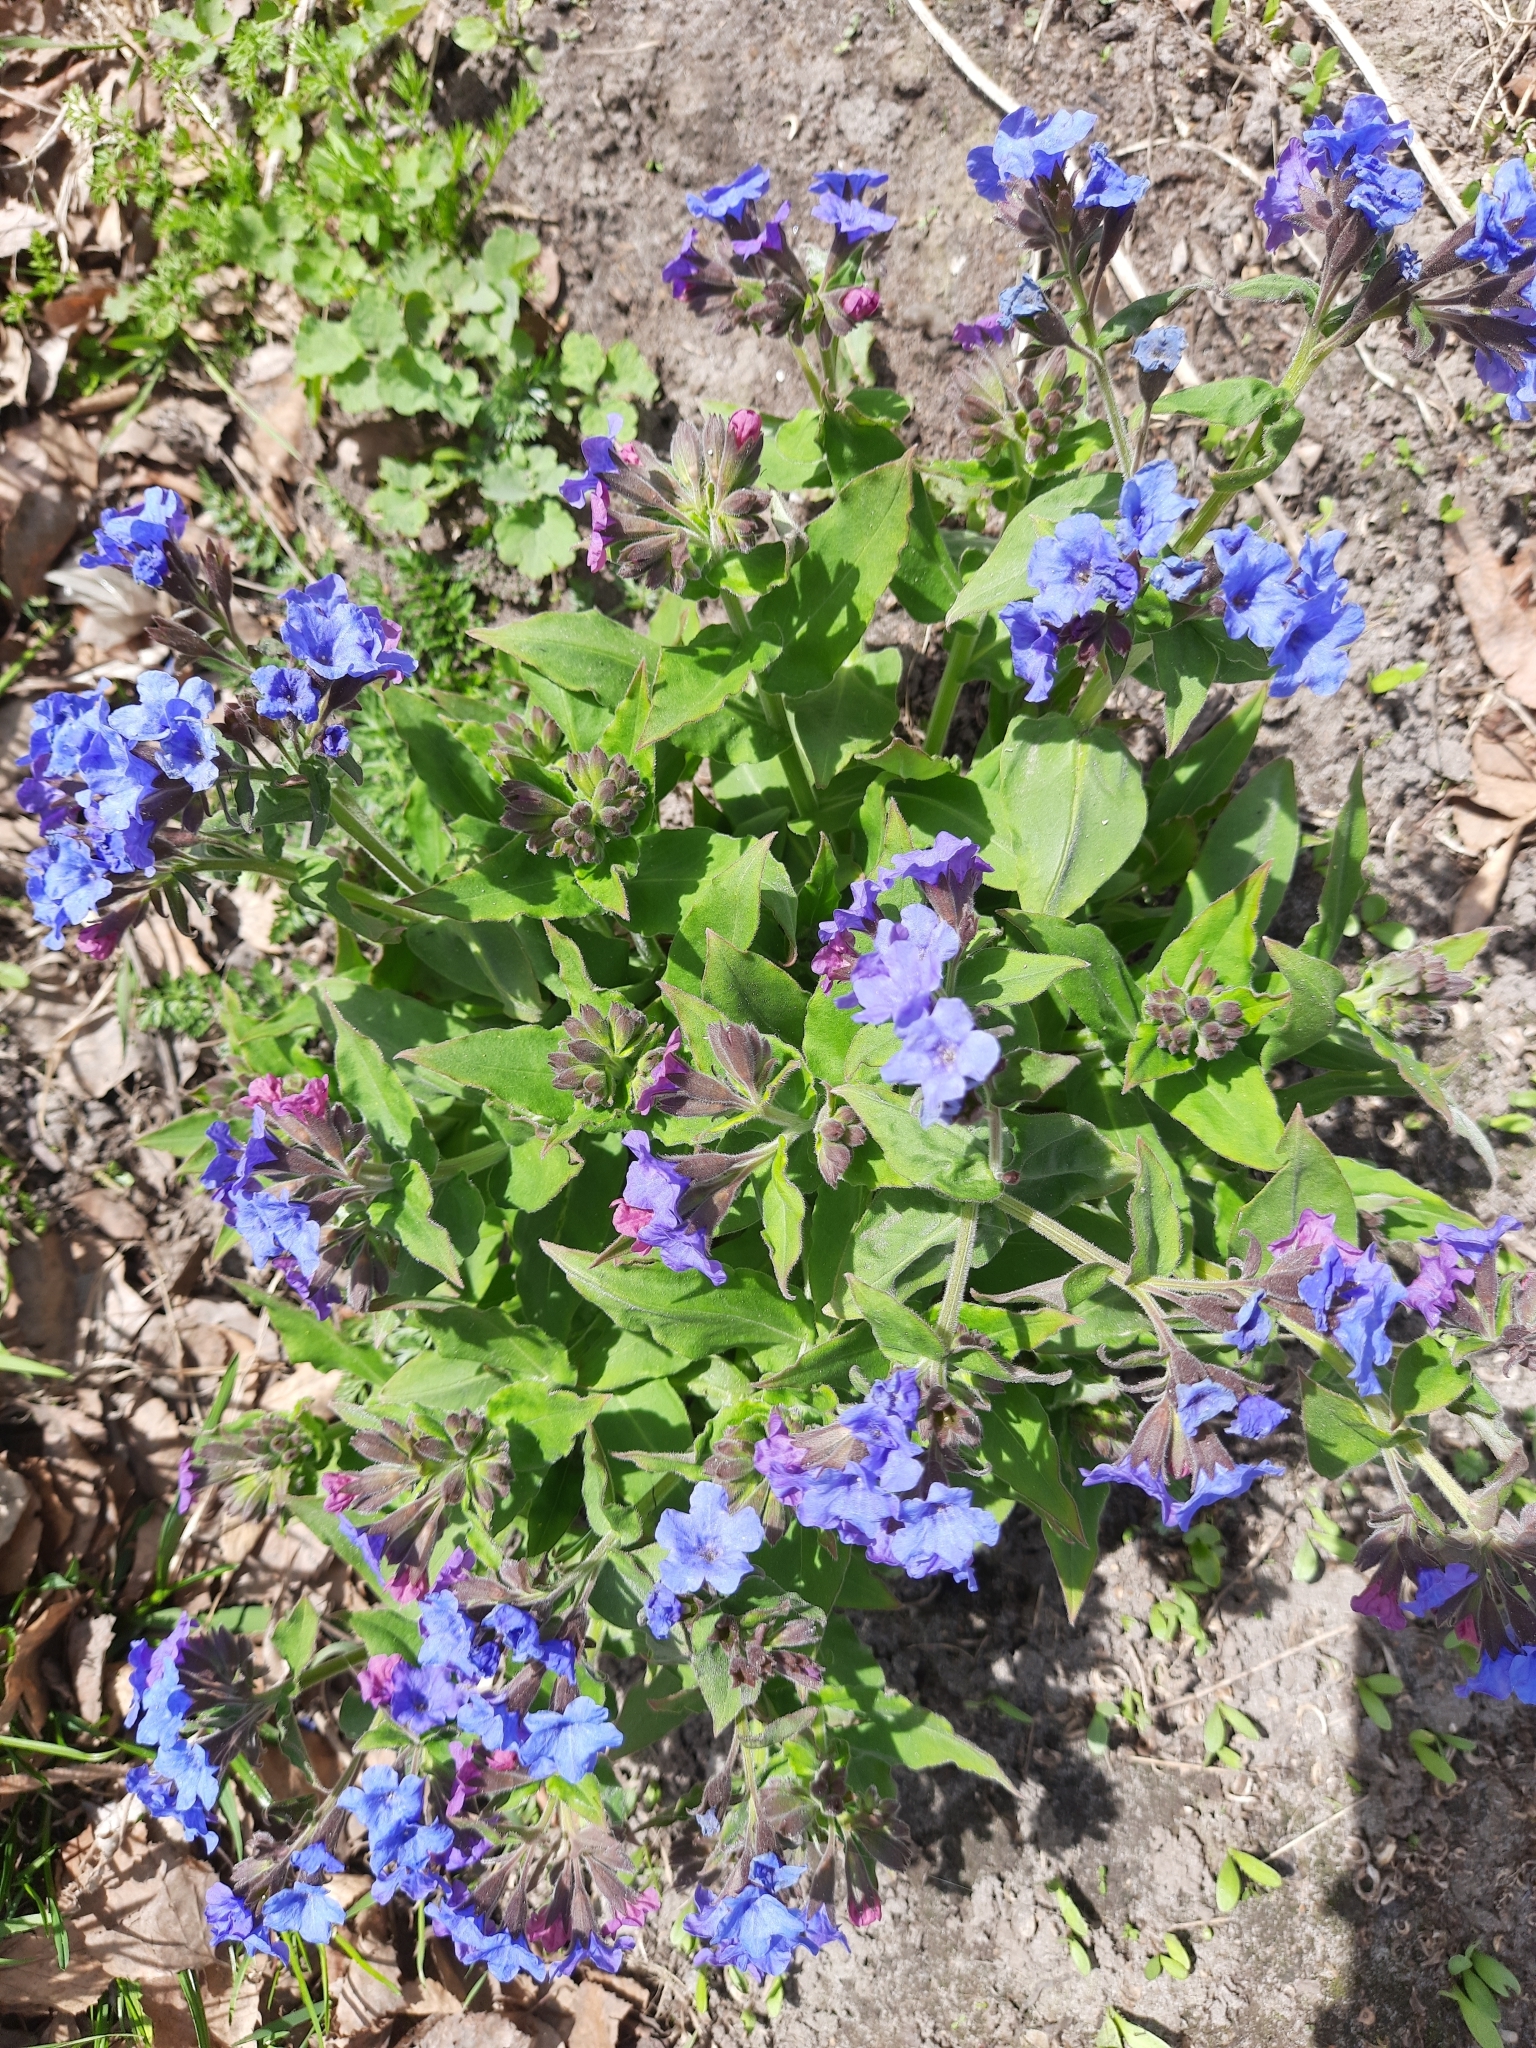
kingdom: Plantae
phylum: Tracheophyta
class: Magnoliopsida
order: Boraginales
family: Boraginaceae
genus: Pulmonaria
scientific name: Pulmonaria mollis
